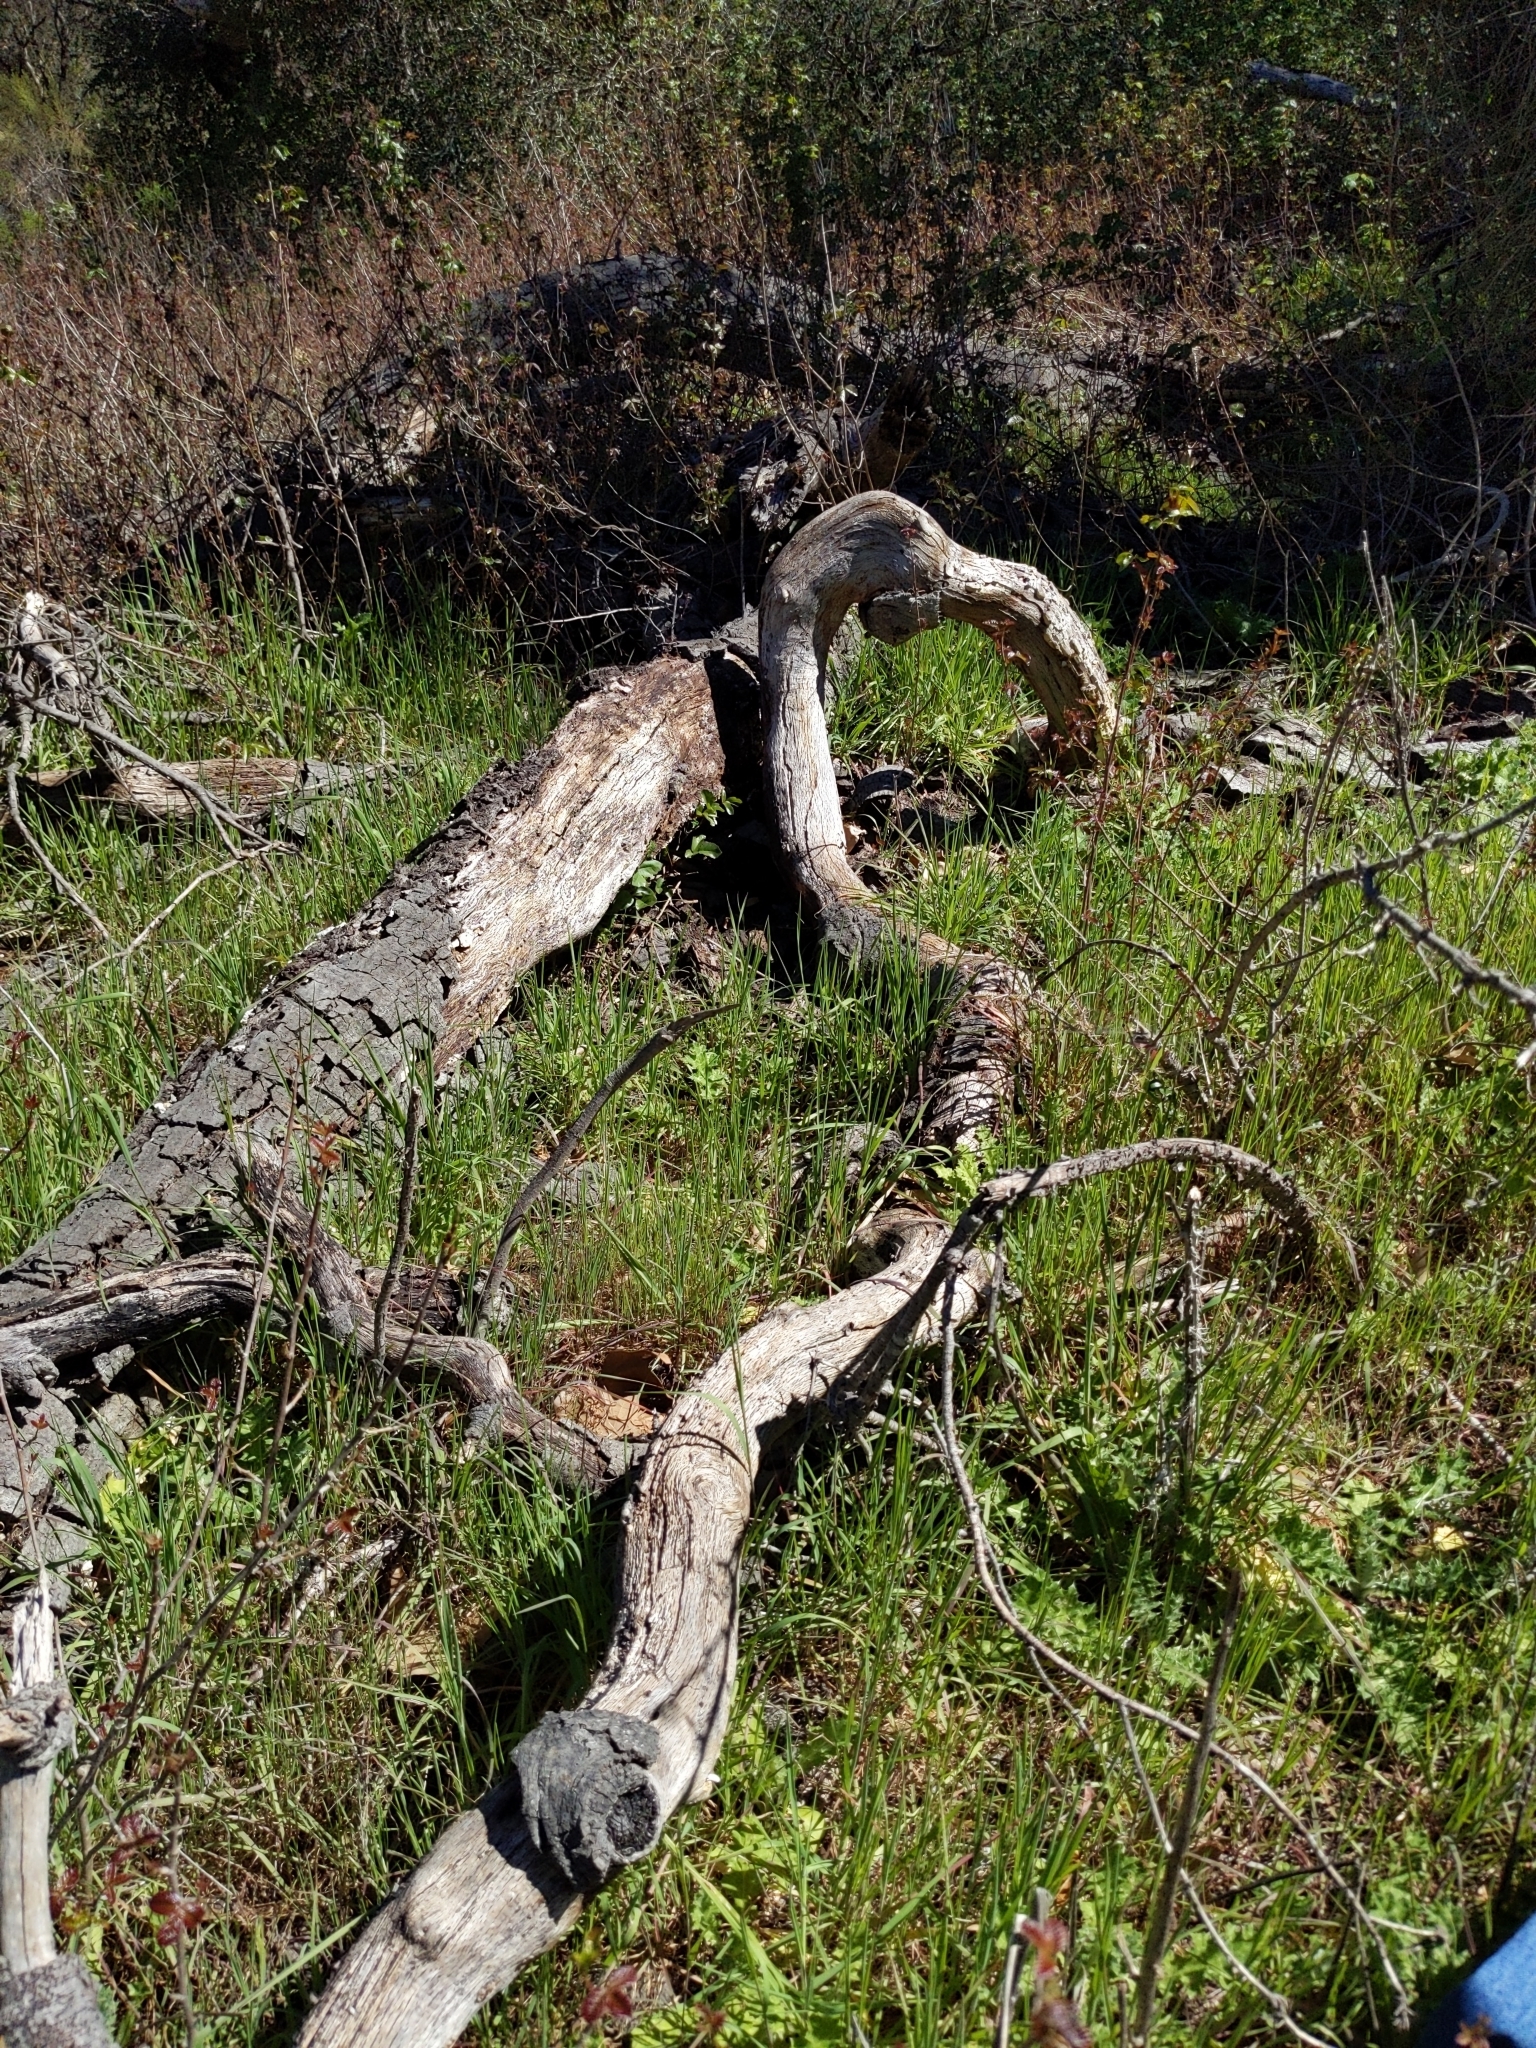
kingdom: Fungi
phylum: Basidiomycota
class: Agaricomycetes
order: Agaricales
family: Schizophyllaceae
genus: Schizophyllum
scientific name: Schizophyllum commune
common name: Common porecrust
